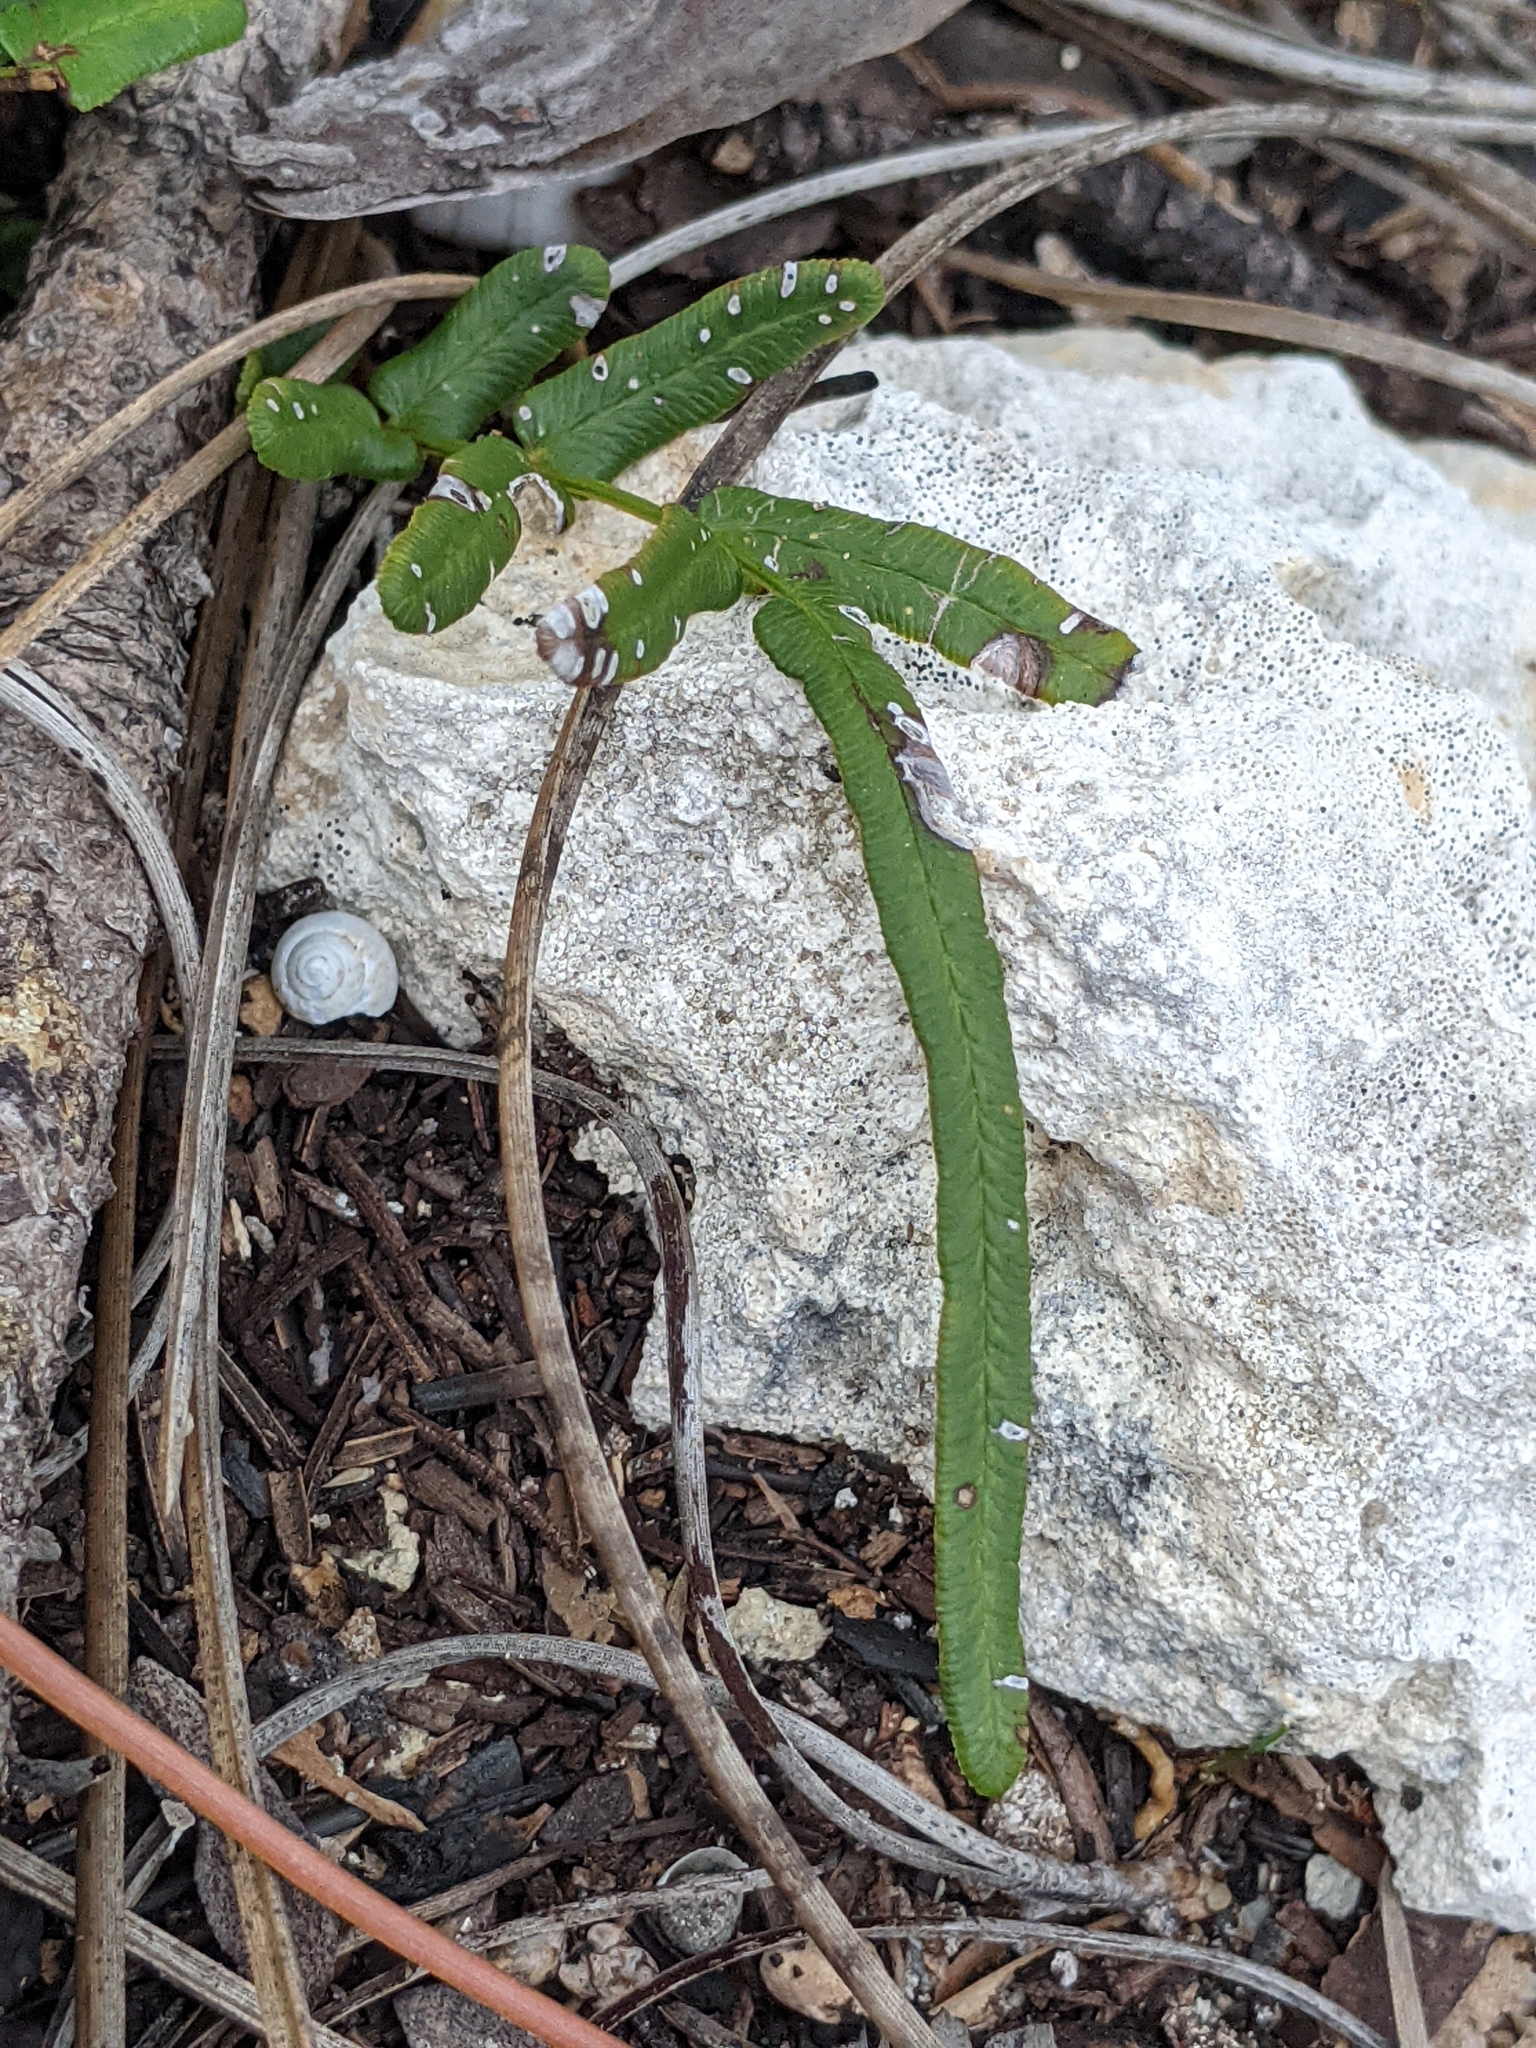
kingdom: Plantae
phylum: Tracheophyta
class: Polypodiopsida
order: Polypodiales
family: Pteridaceae
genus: Pteris
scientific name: Pteris vittata
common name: Ladder brake
